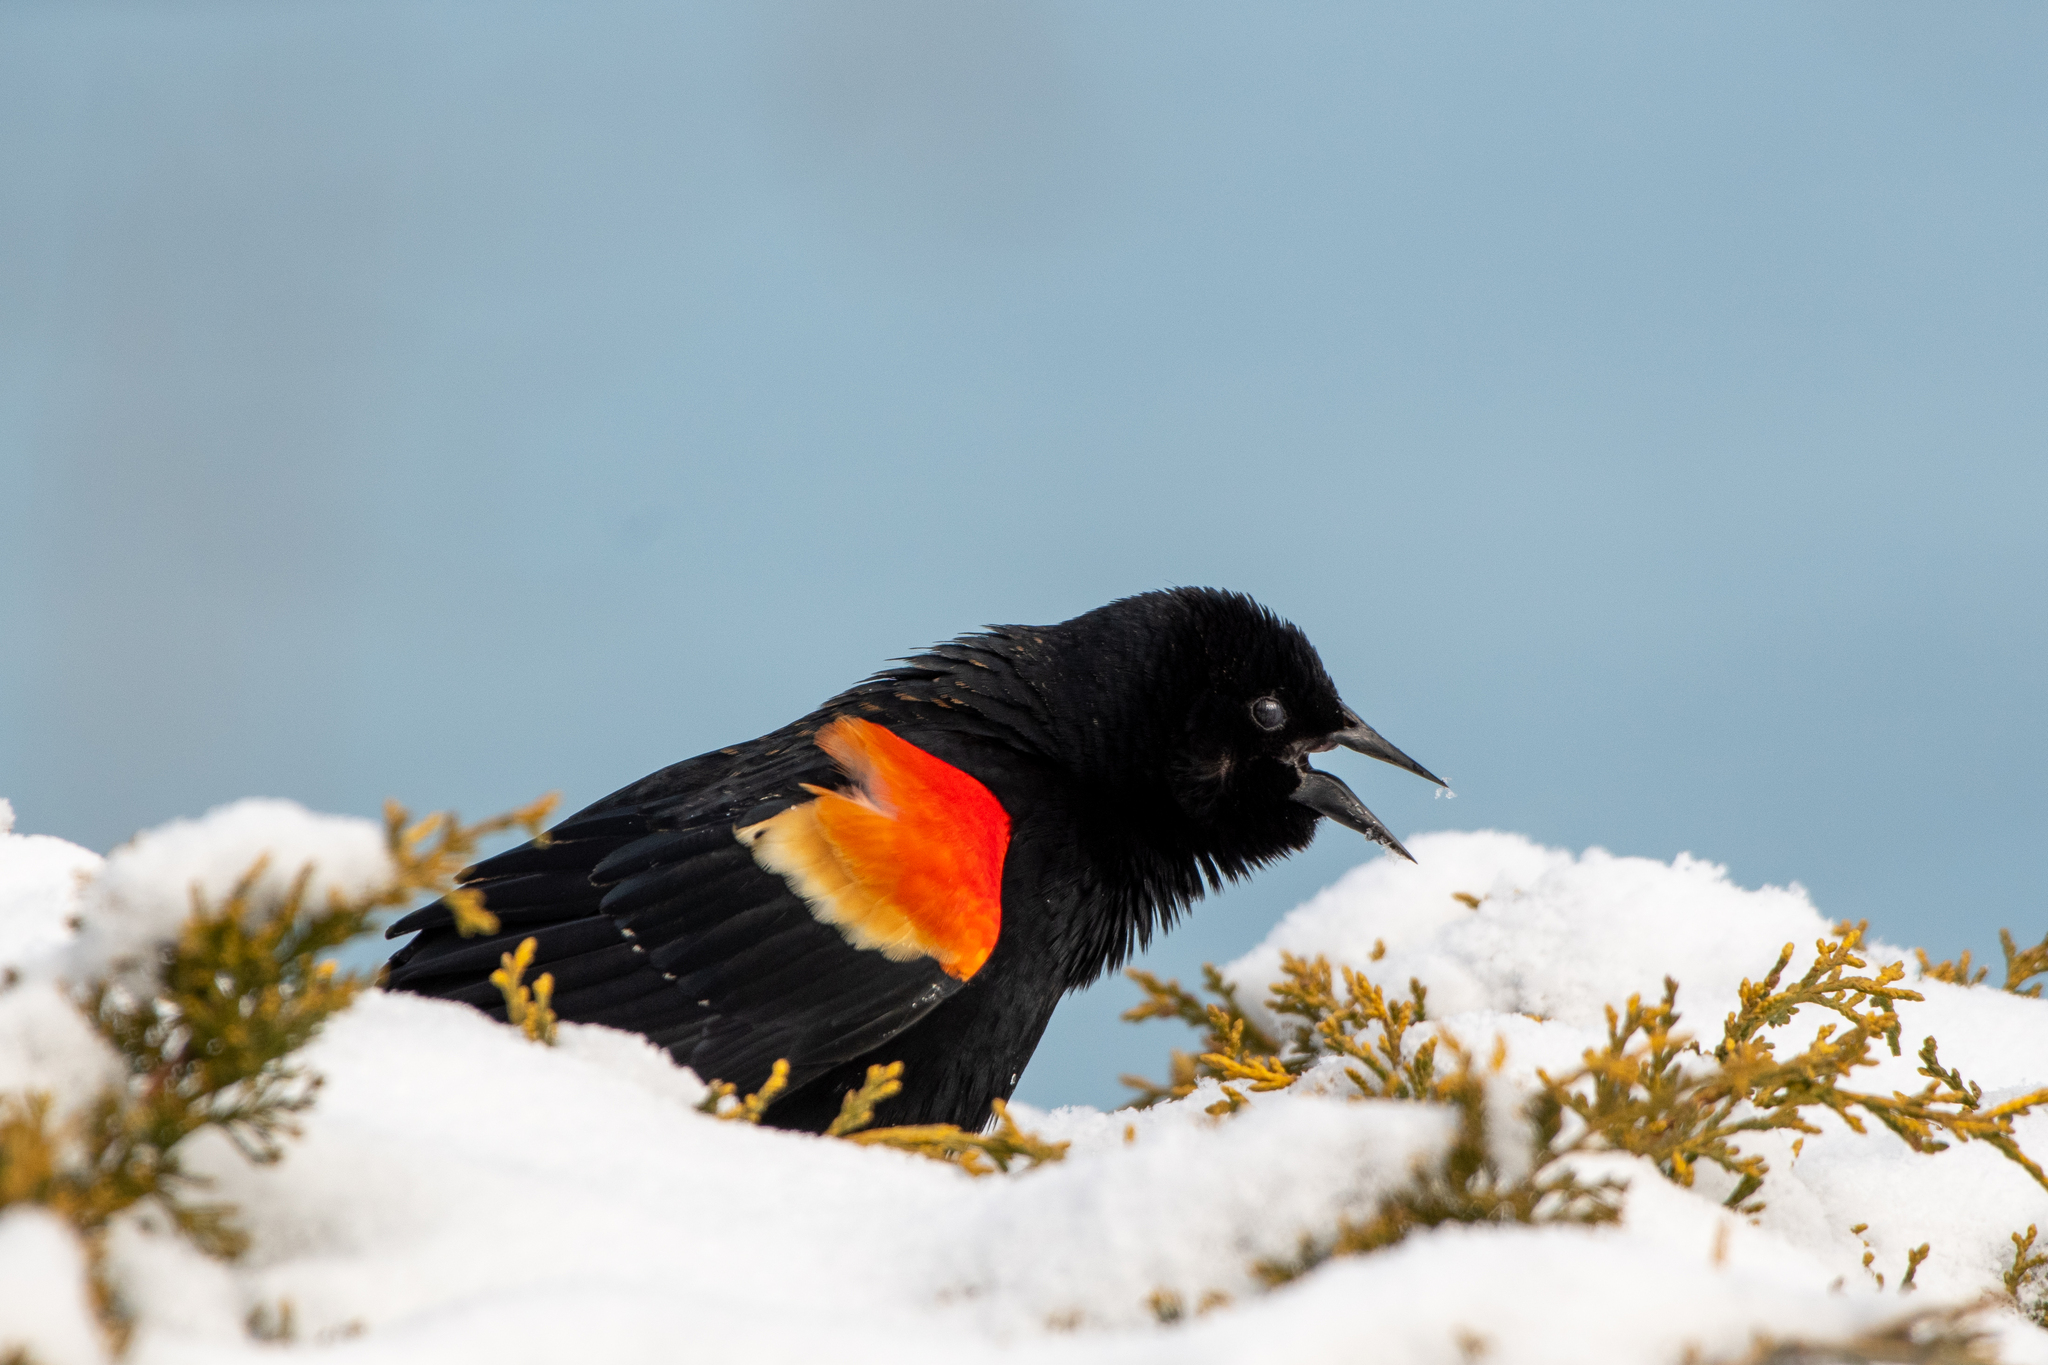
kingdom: Animalia
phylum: Chordata
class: Aves
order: Passeriformes
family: Icteridae
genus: Agelaius
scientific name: Agelaius phoeniceus
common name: Red-winged blackbird
